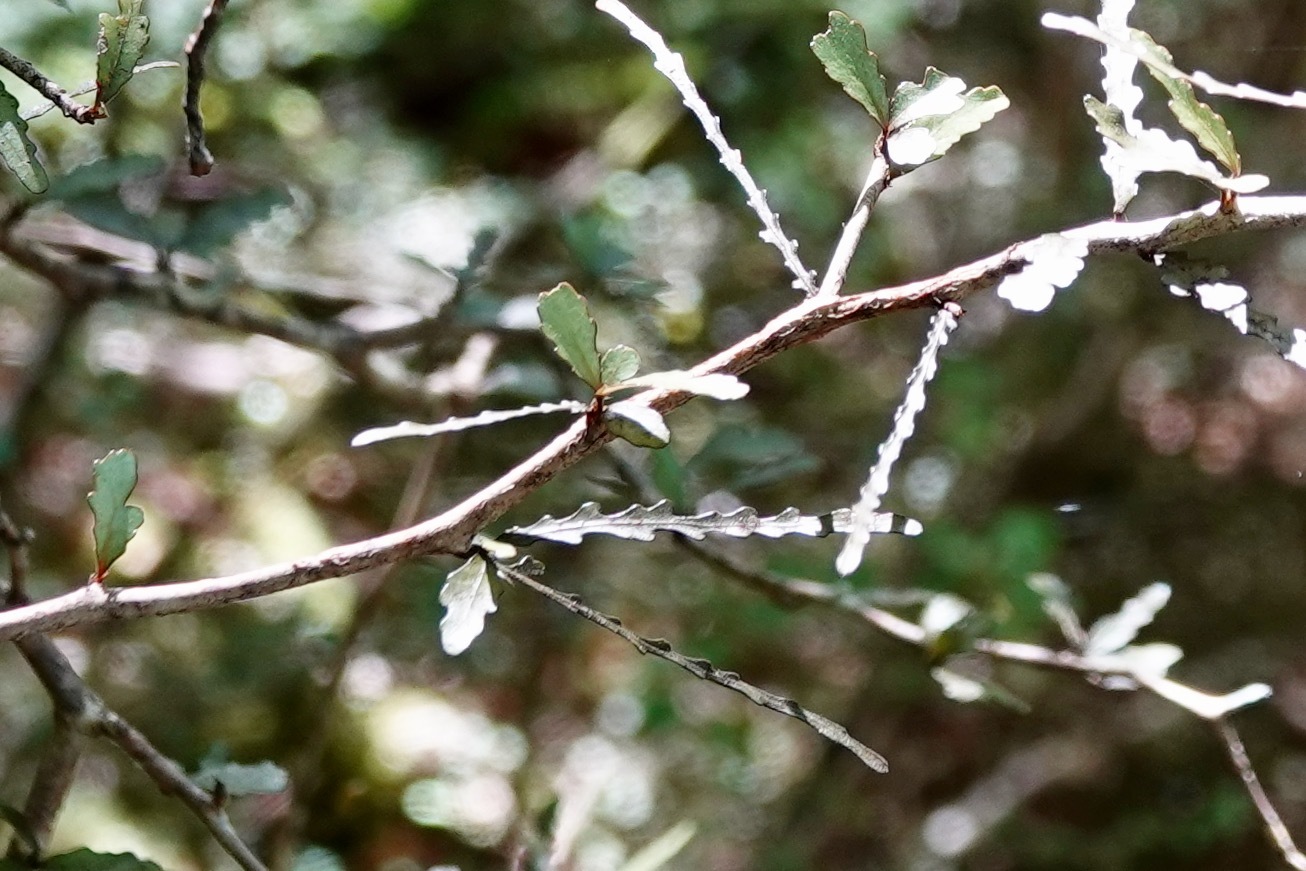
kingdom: Plantae
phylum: Tracheophyta
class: Magnoliopsida
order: Oxalidales
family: Elaeocarpaceae
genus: Elaeocarpus
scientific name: Elaeocarpus hookerianus
